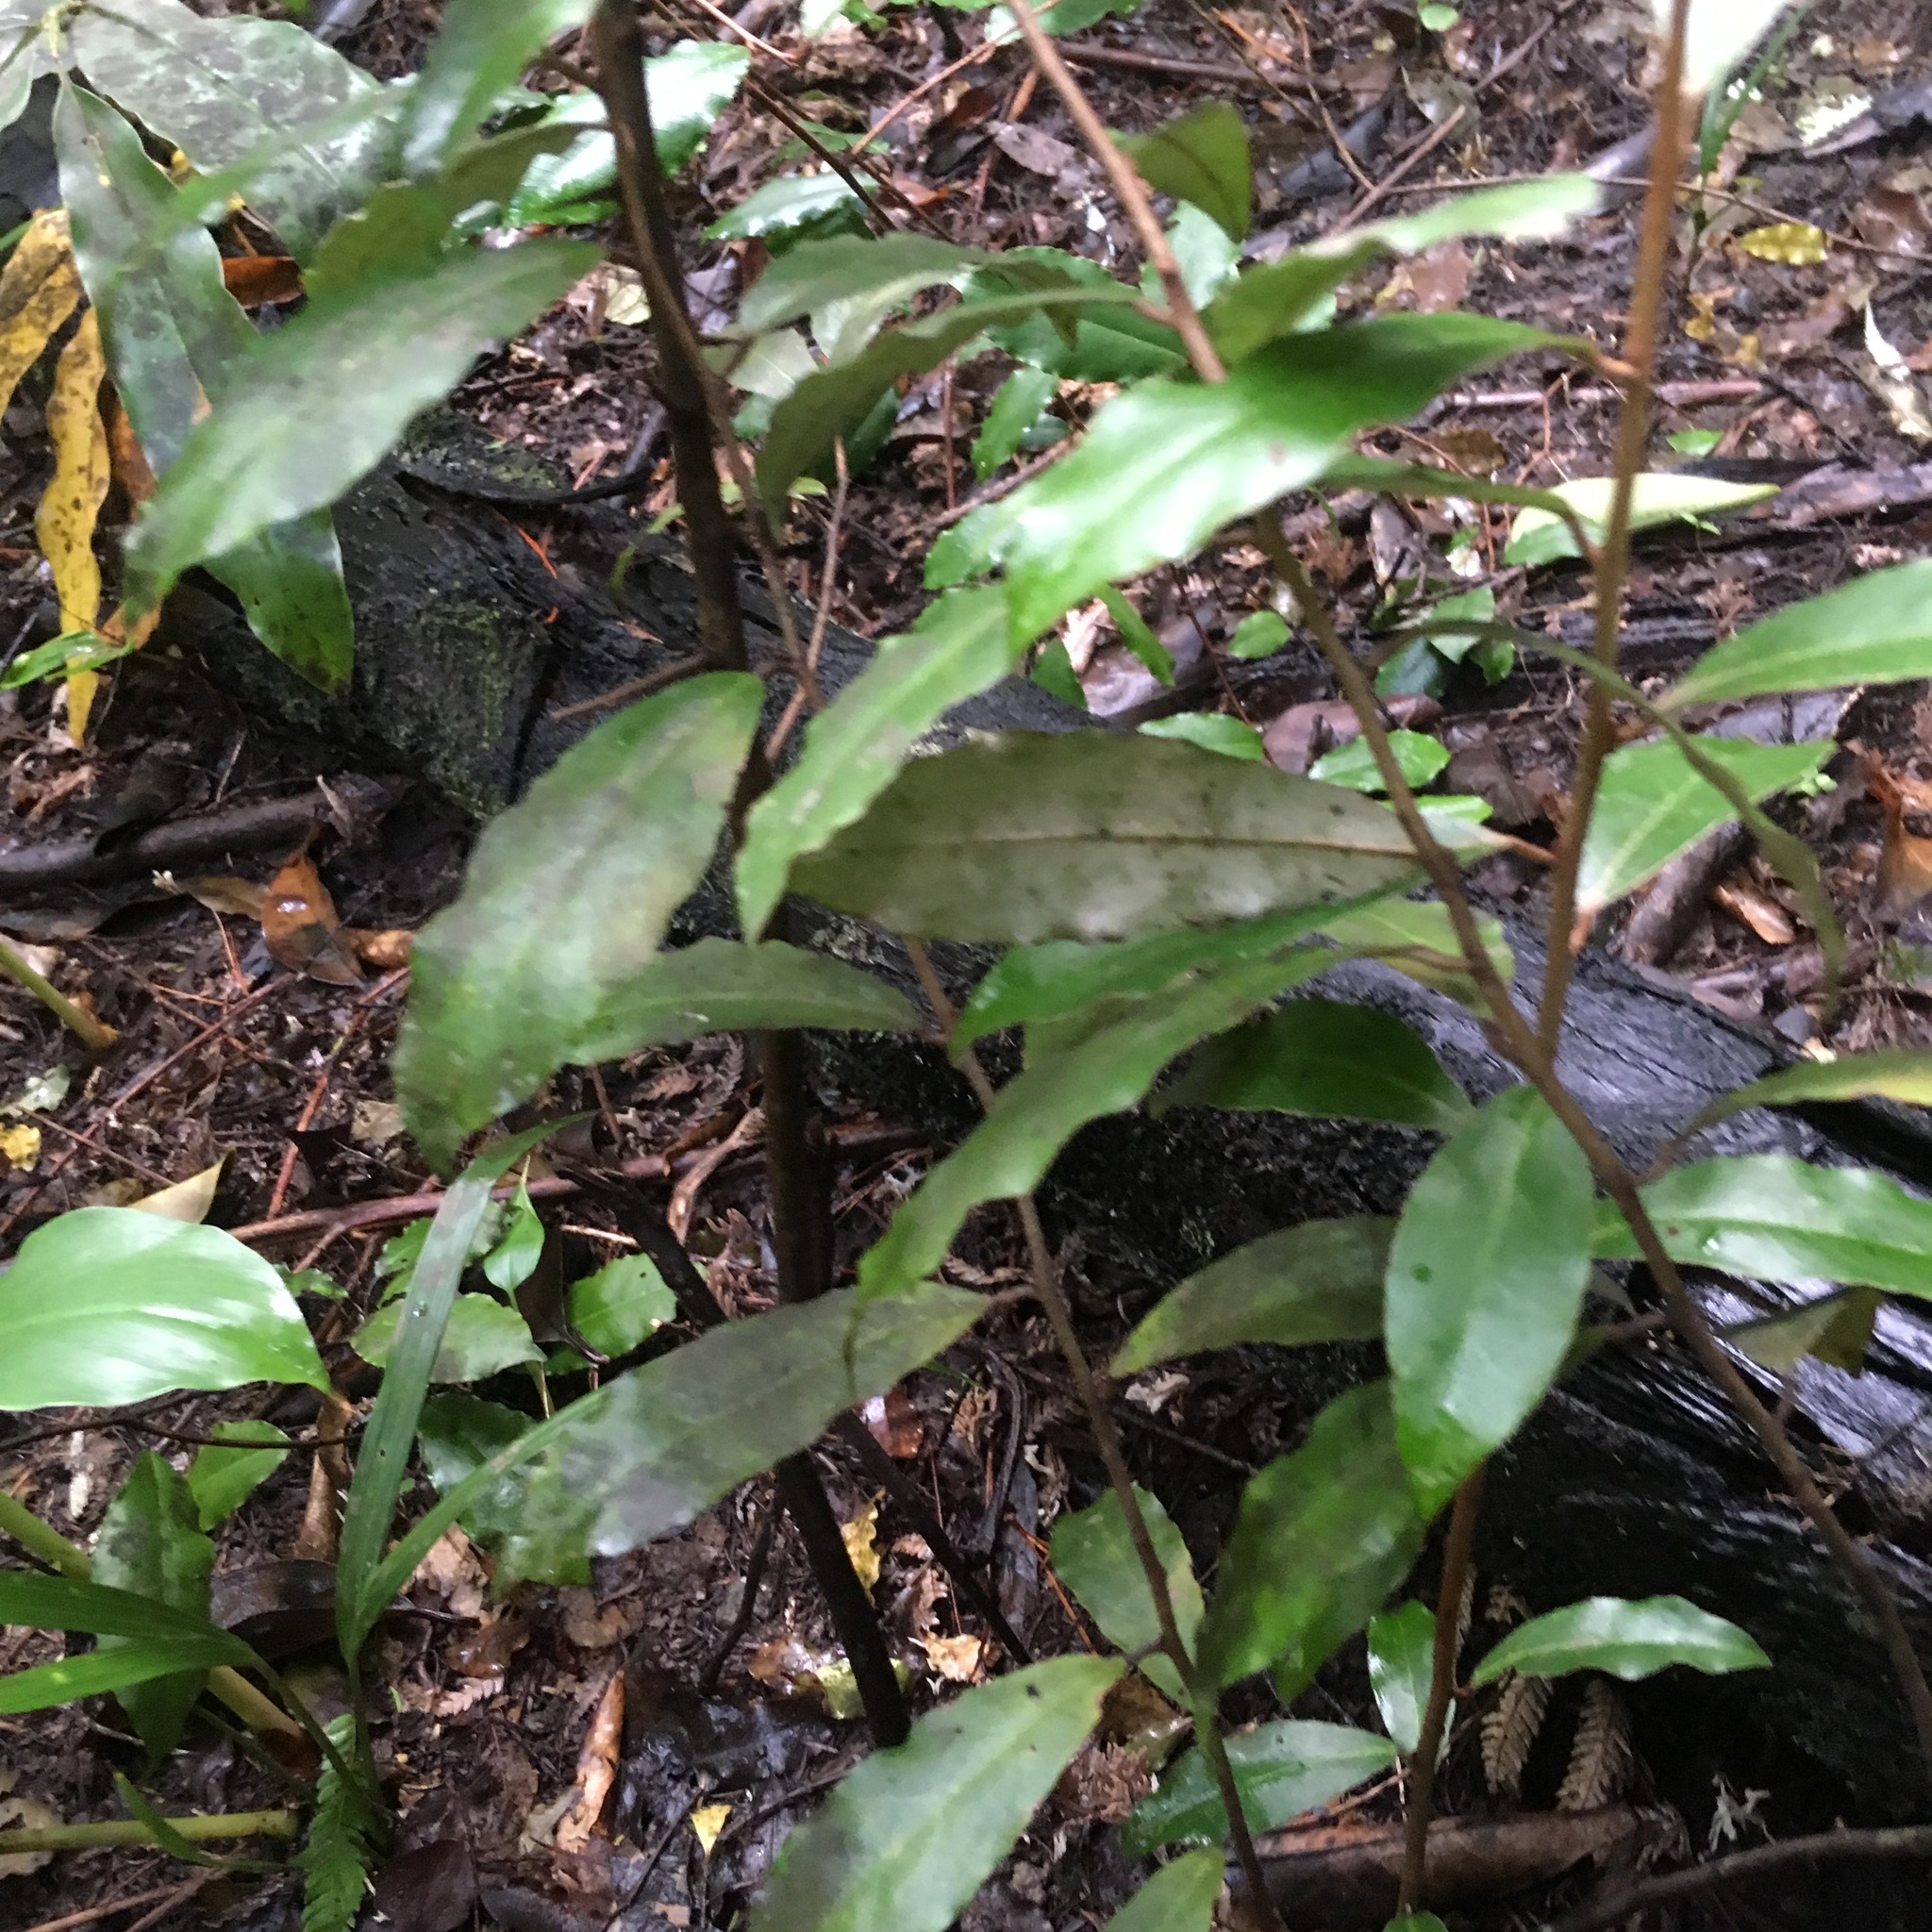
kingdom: Plantae
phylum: Tracheophyta
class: Magnoliopsida
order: Rosales
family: Elaeagnaceae
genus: Elaeagnus
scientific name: Elaeagnus reflexa
